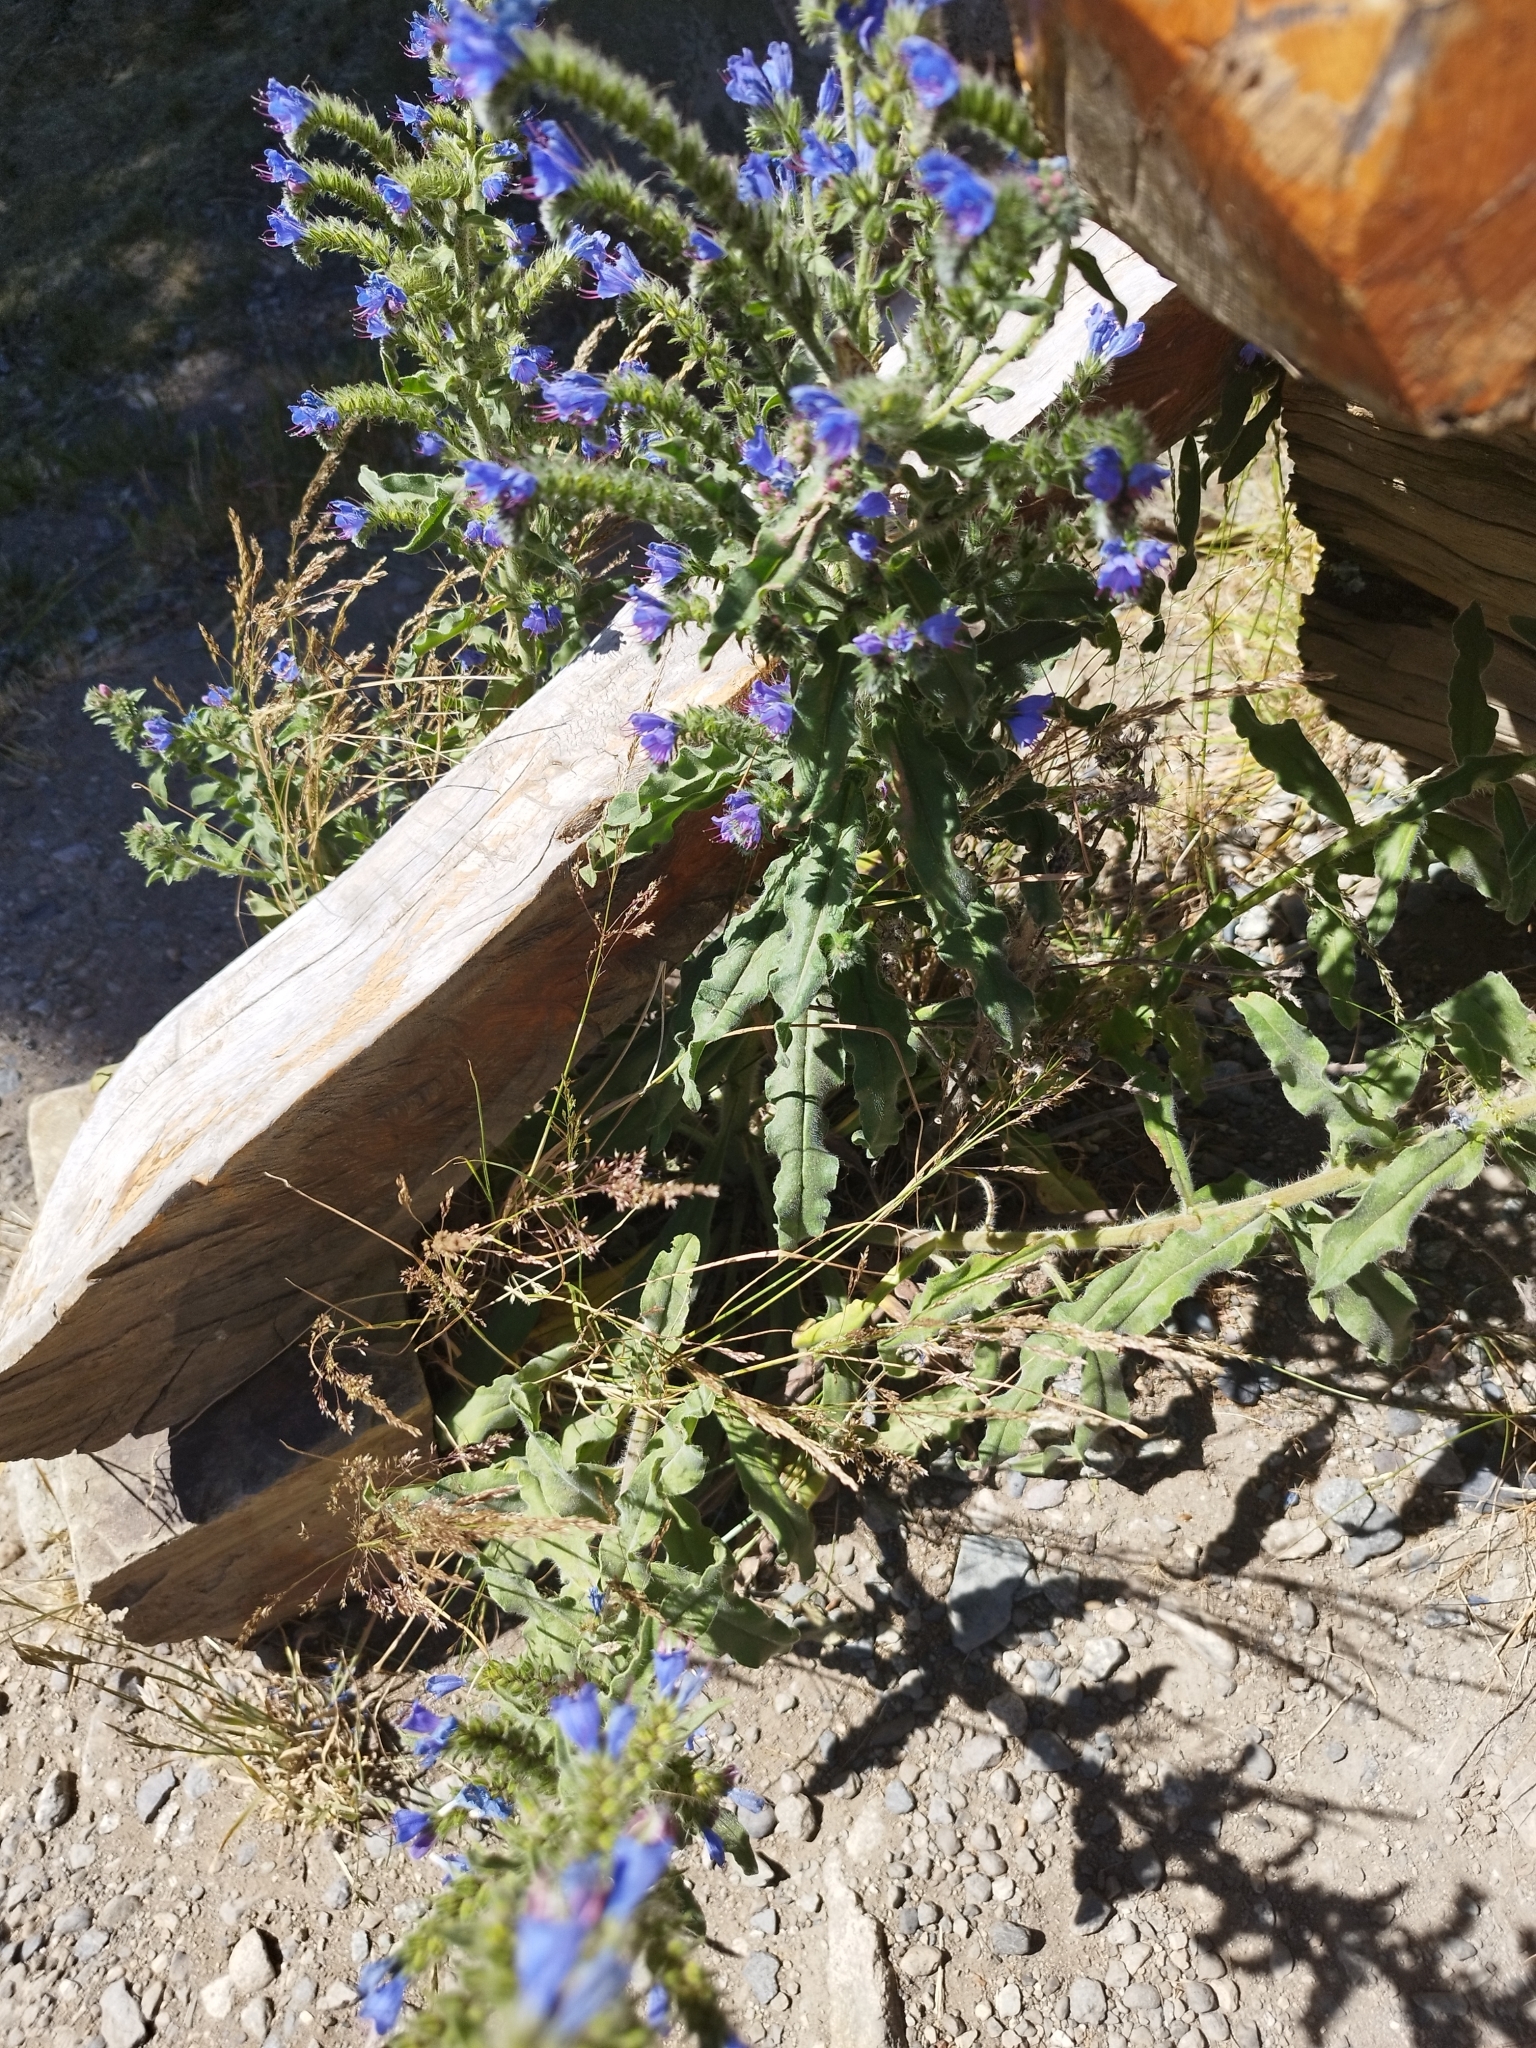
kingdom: Plantae
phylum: Tracheophyta
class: Magnoliopsida
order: Boraginales
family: Boraginaceae
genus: Echium
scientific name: Echium vulgare
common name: Common viper's bugloss
